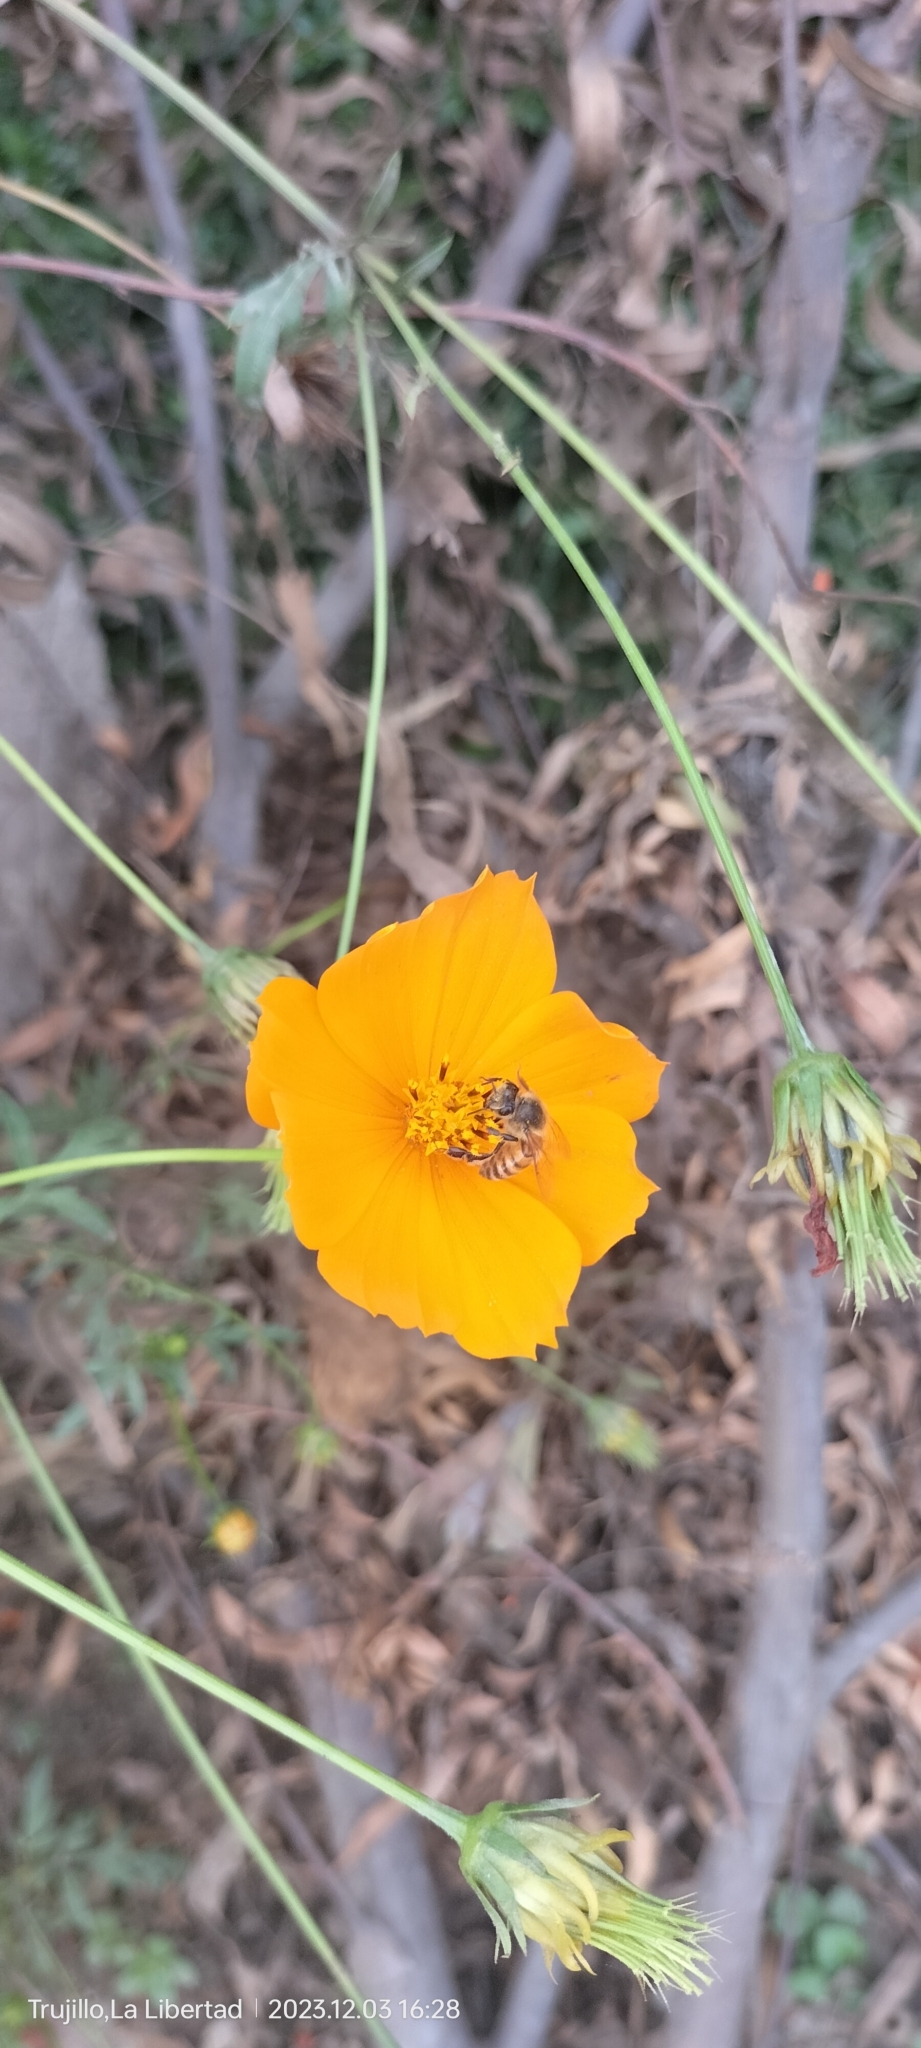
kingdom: Animalia
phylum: Arthropoda
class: Insecta
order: Hymenoptera
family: Apidae
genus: Apis
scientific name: Apis mellifera
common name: Honey bee
